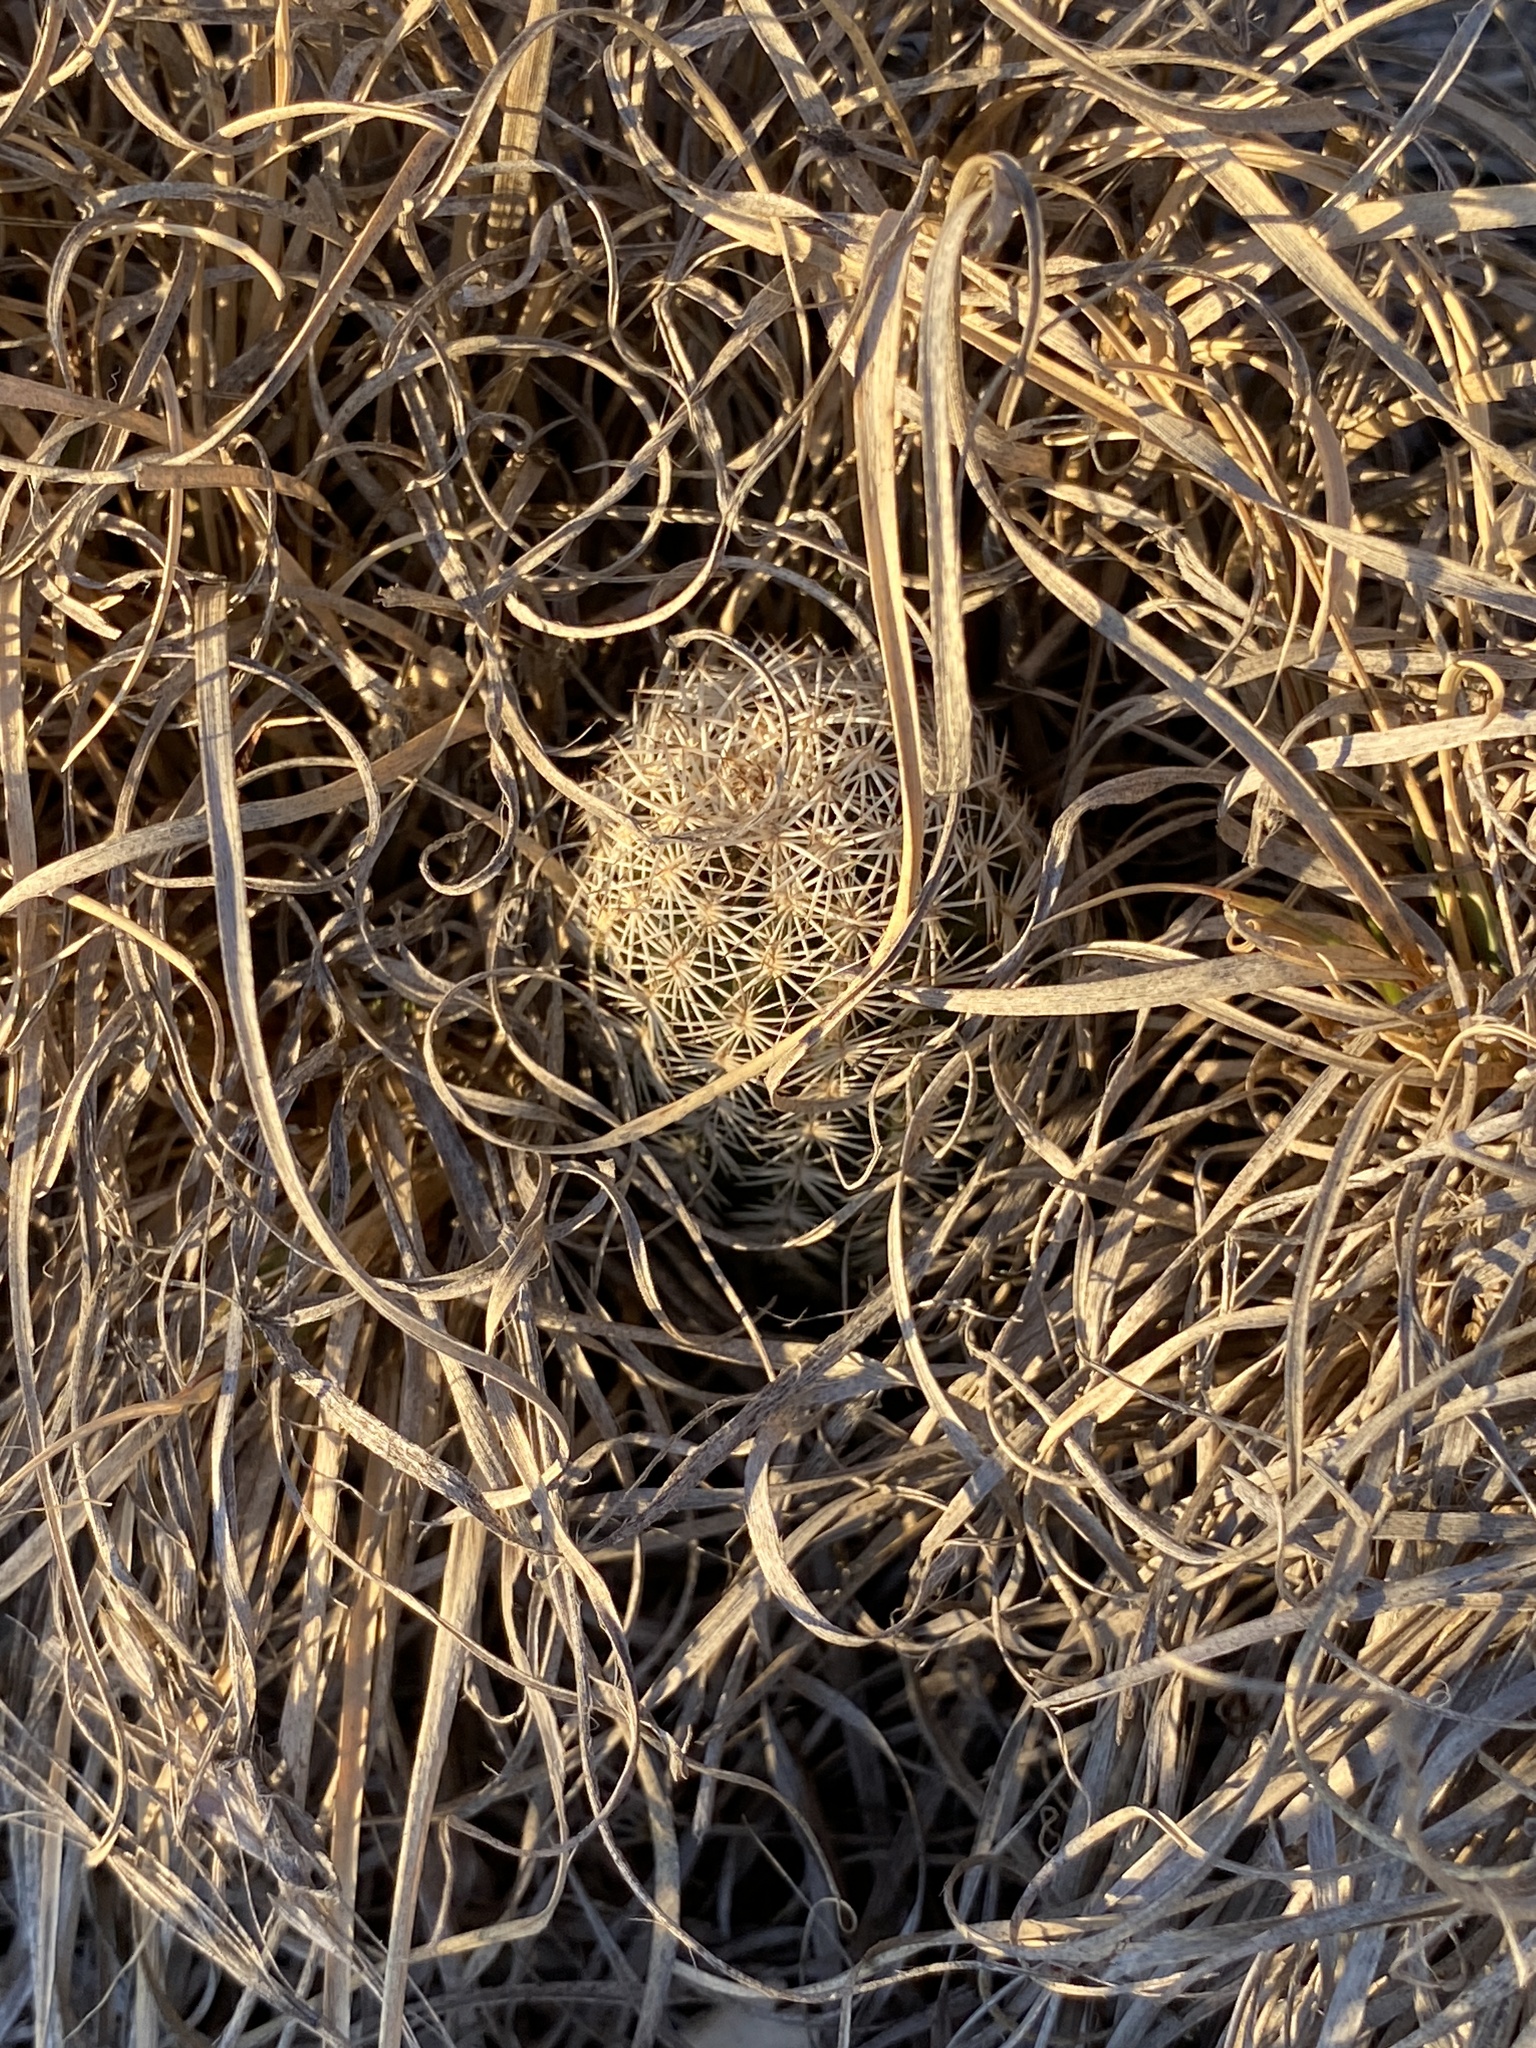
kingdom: Plantae
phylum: Tracheophyta
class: Magnoliopsida
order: Caryophyllales
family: Cactaceae
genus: Echinocereus
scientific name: Echinocereus reichenbachii
